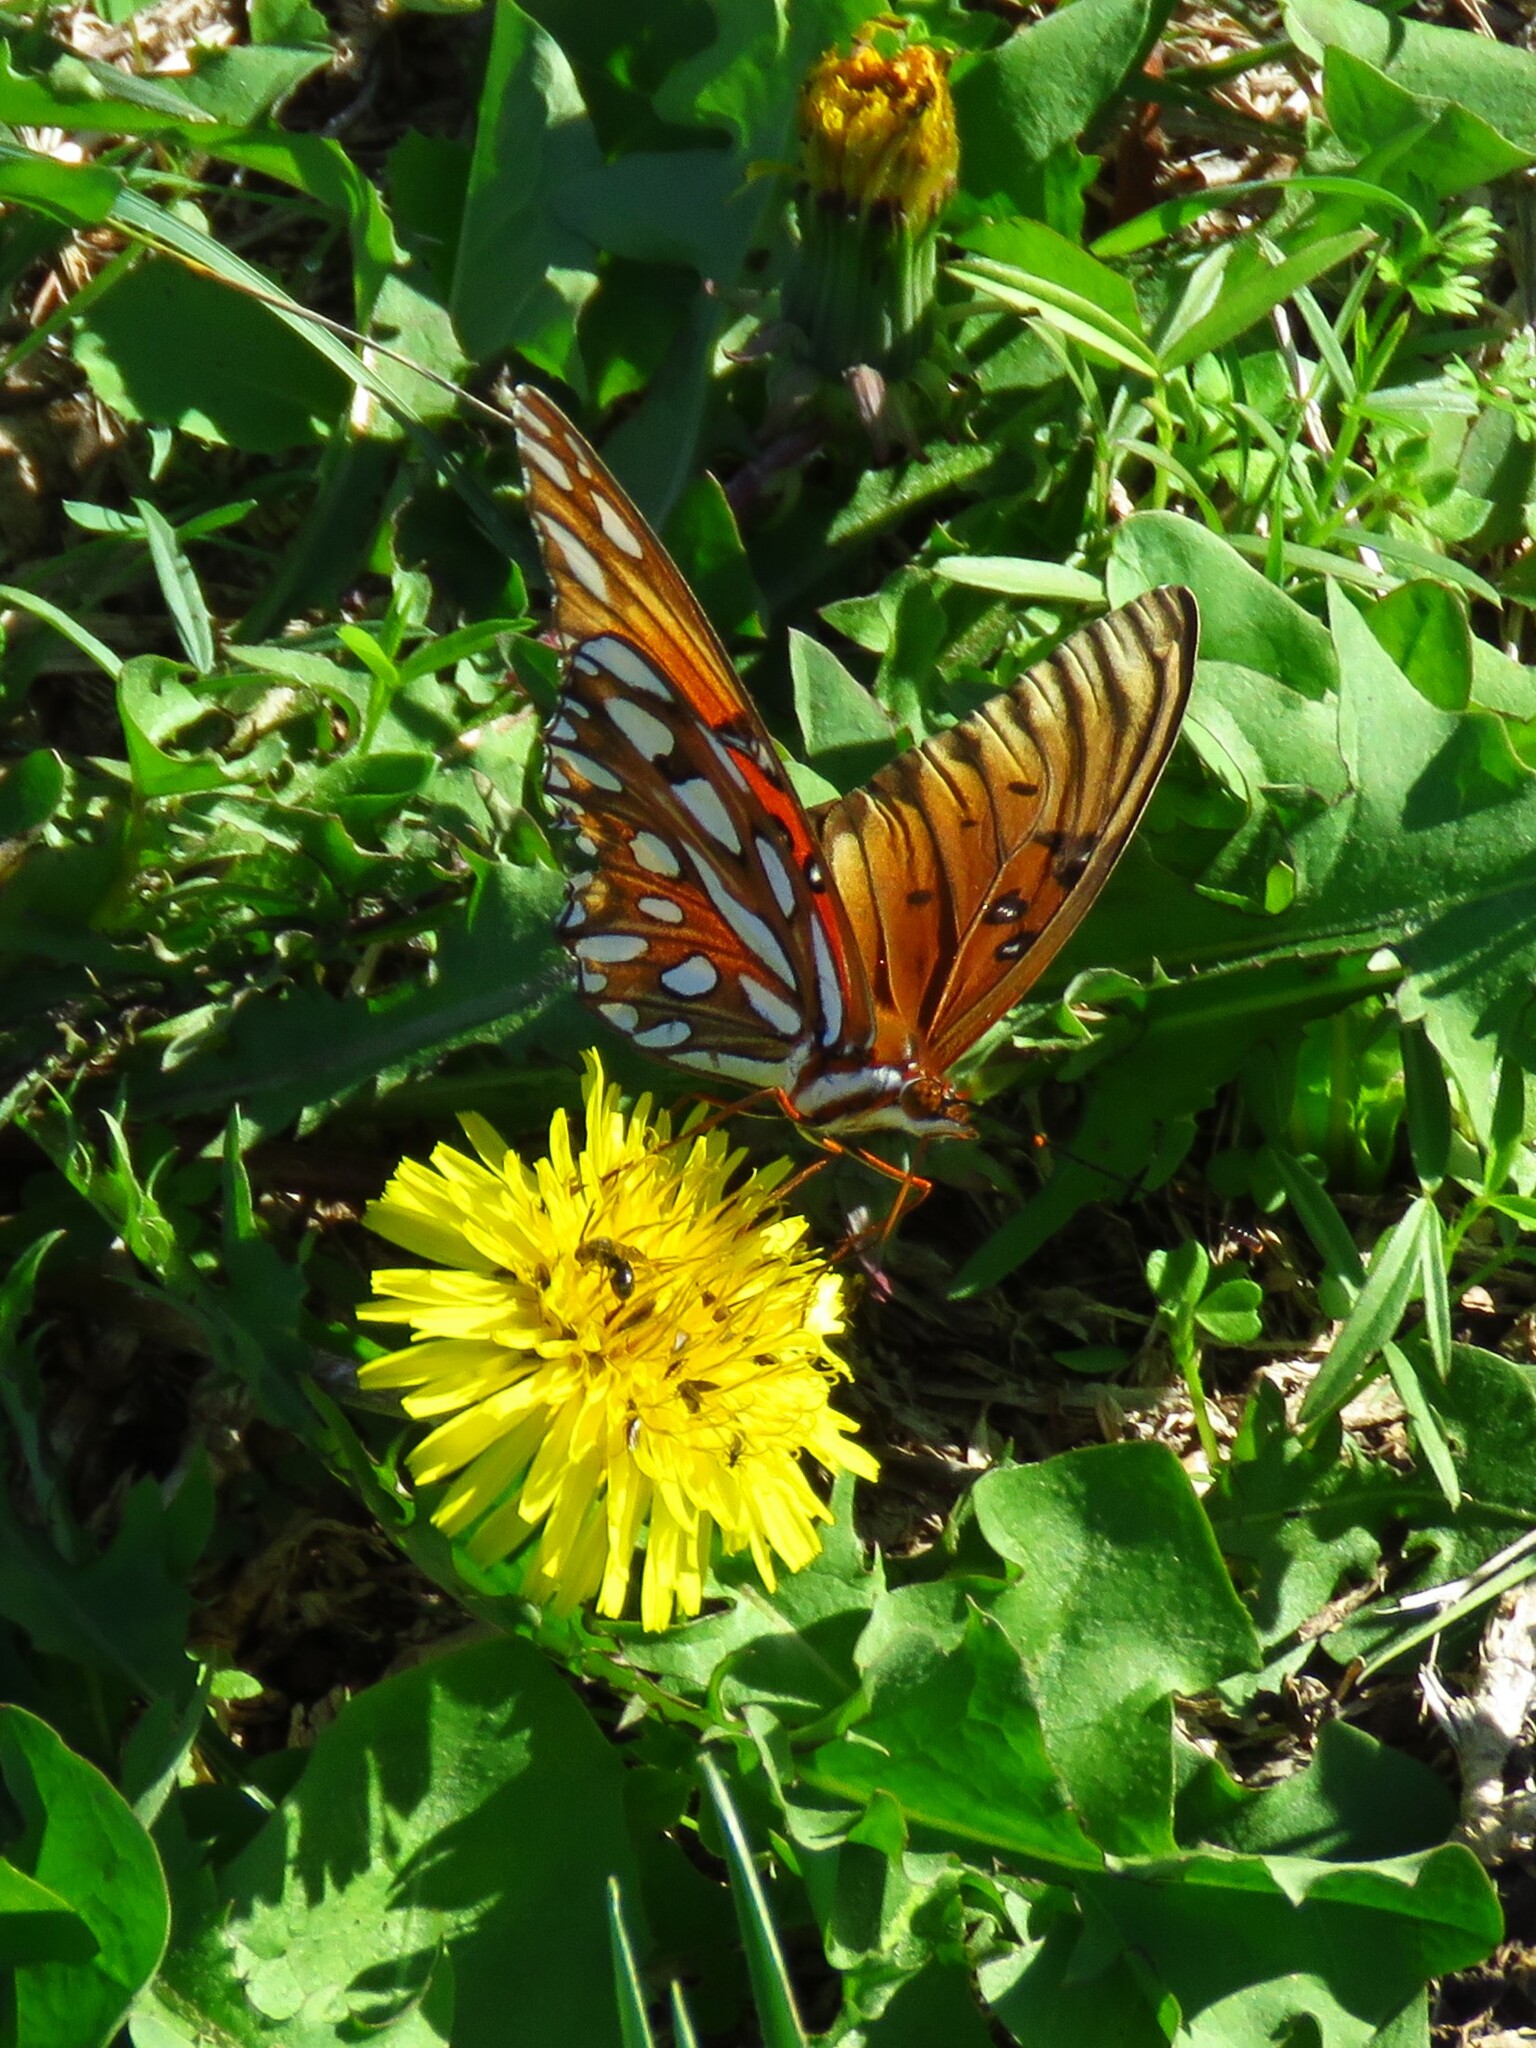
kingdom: Animalia
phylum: Arthropoda
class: Insecta
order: Lepidoptera
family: Nymphalidae
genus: Dione
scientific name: Dione vanillae
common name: Gulf fritillary
